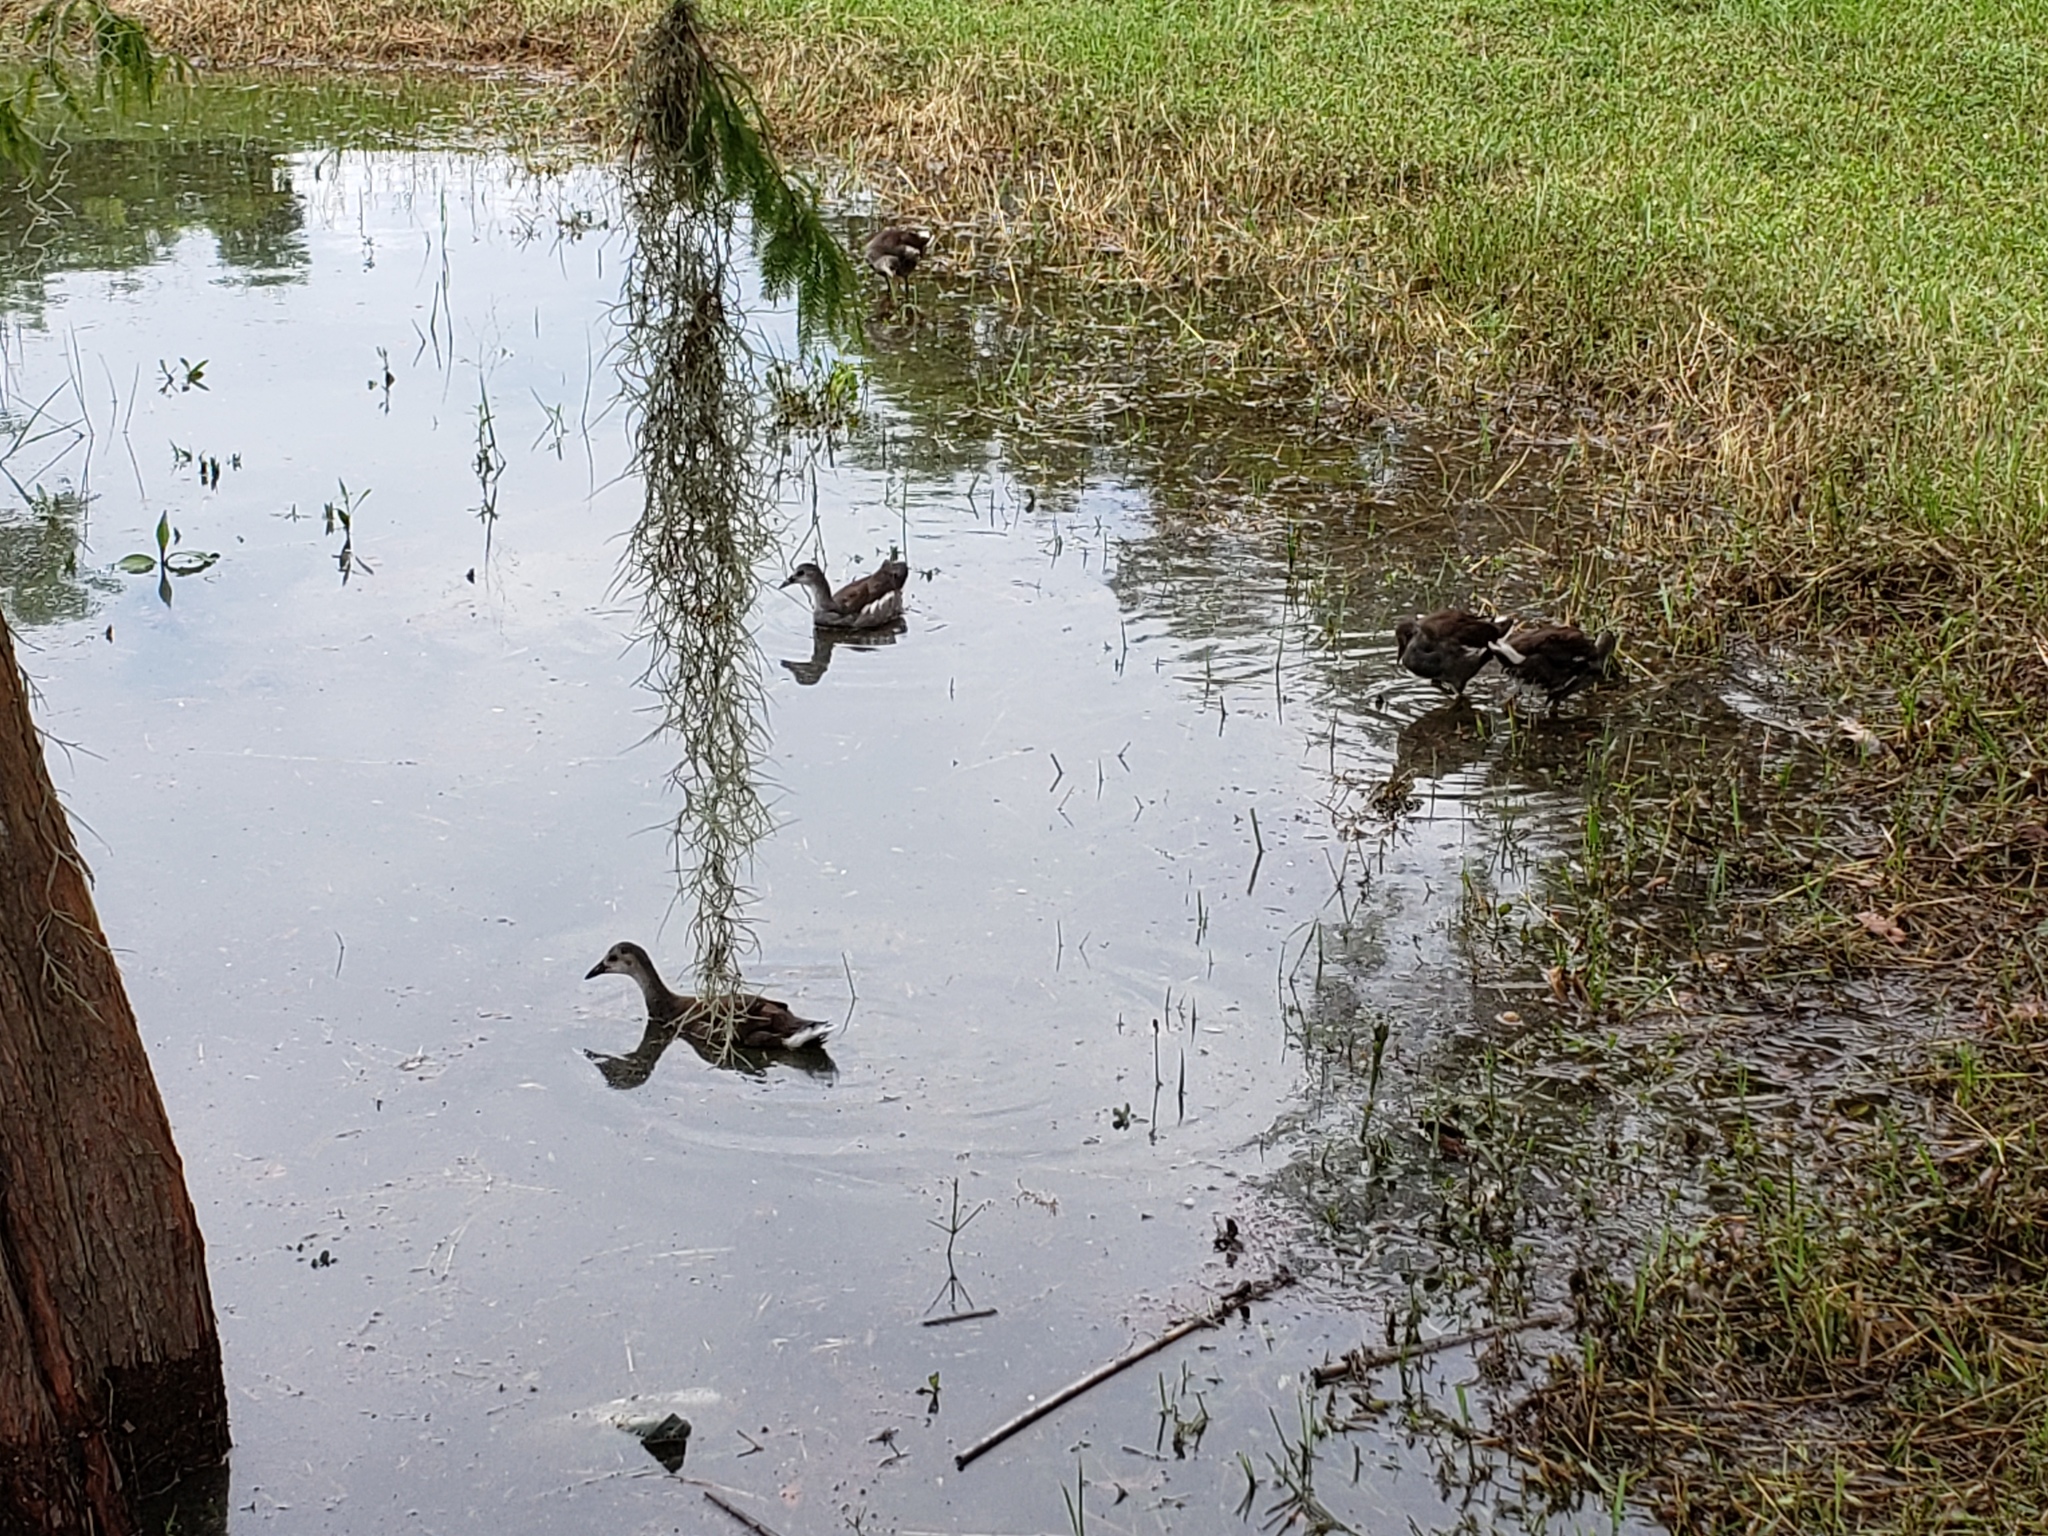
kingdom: Animalia
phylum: Chordata
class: Aves
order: Gruiformes
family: Rallidae
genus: Gallinula
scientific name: Gallinula chloropus
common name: Common moorhen
